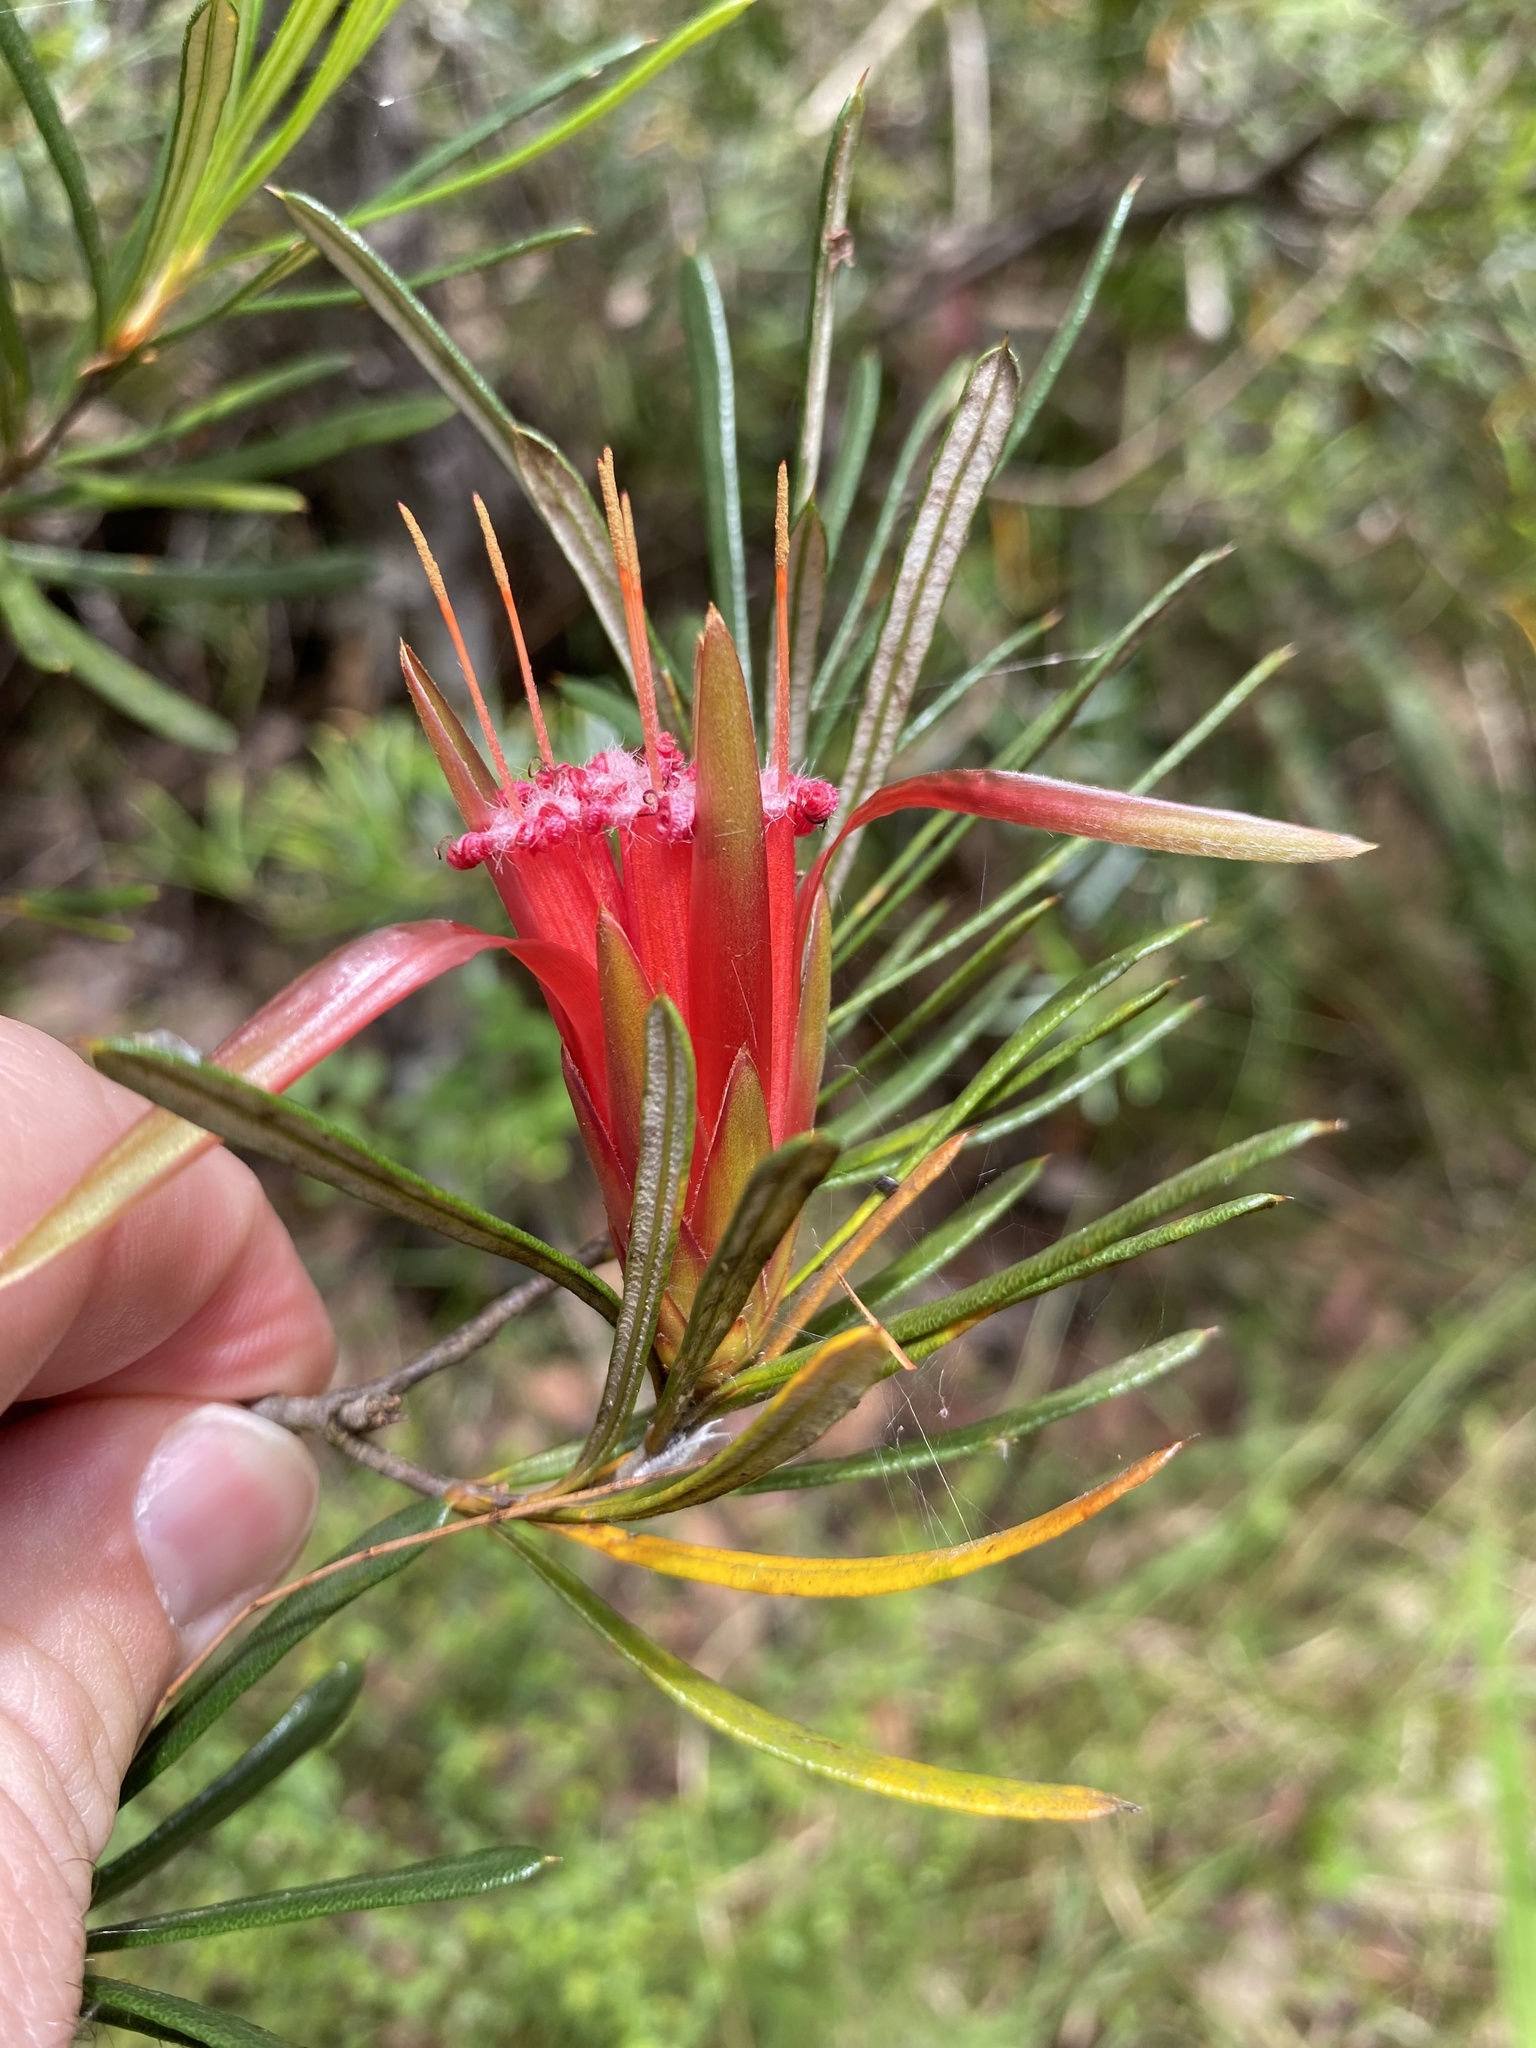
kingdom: Plantae
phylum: Tracheophyta
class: Magnoliopsida
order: Proteales
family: Proteaceae
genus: Lambertia
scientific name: Lambertia formosa
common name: Mountain-devil
